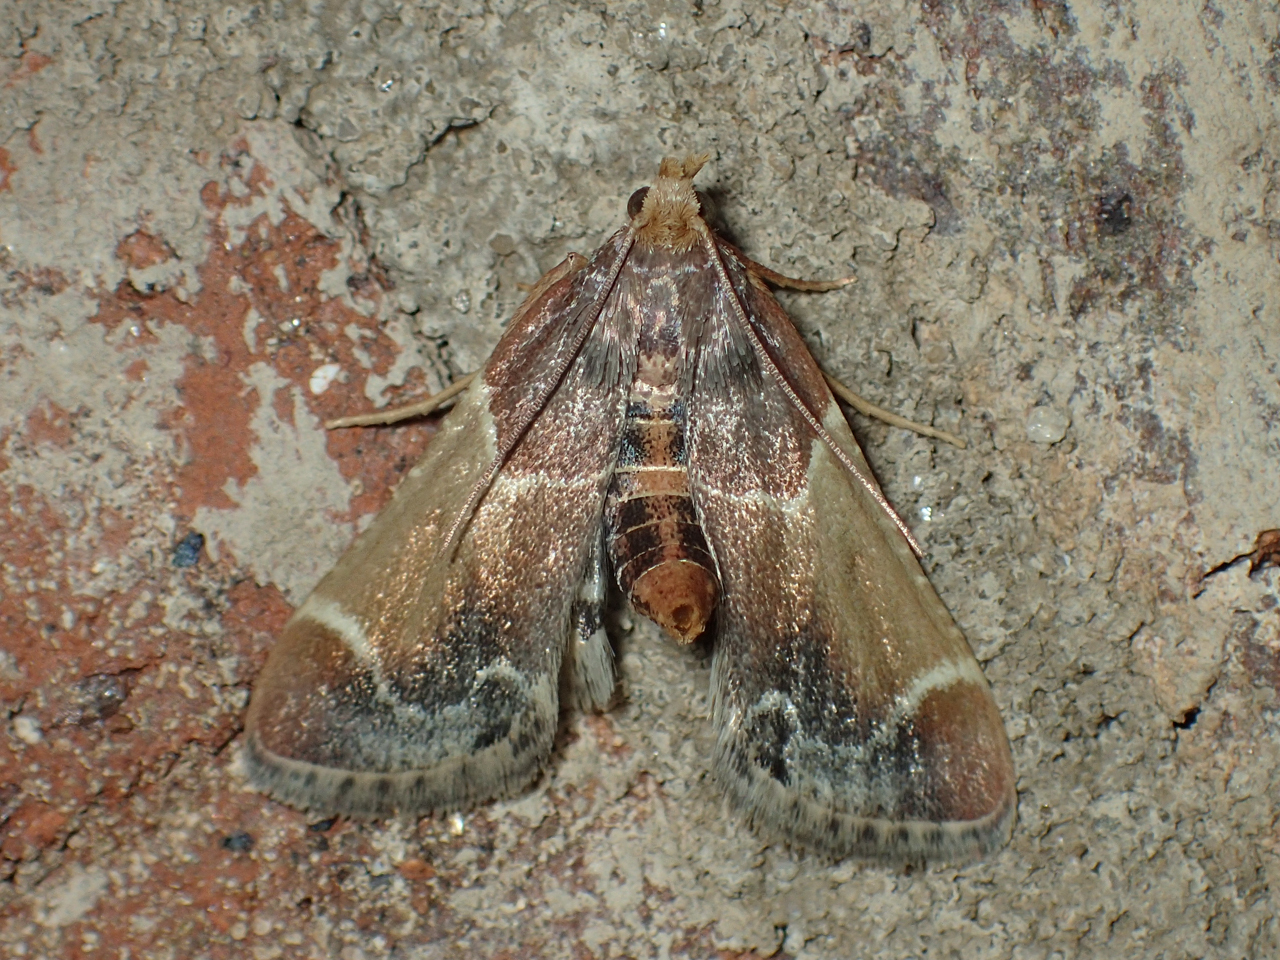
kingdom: Animalia
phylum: Arthropoda
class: Insecta
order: Lepidoptera
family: Pyralidae
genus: Pyralis
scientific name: Pyralis farinalis
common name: Meal moth
